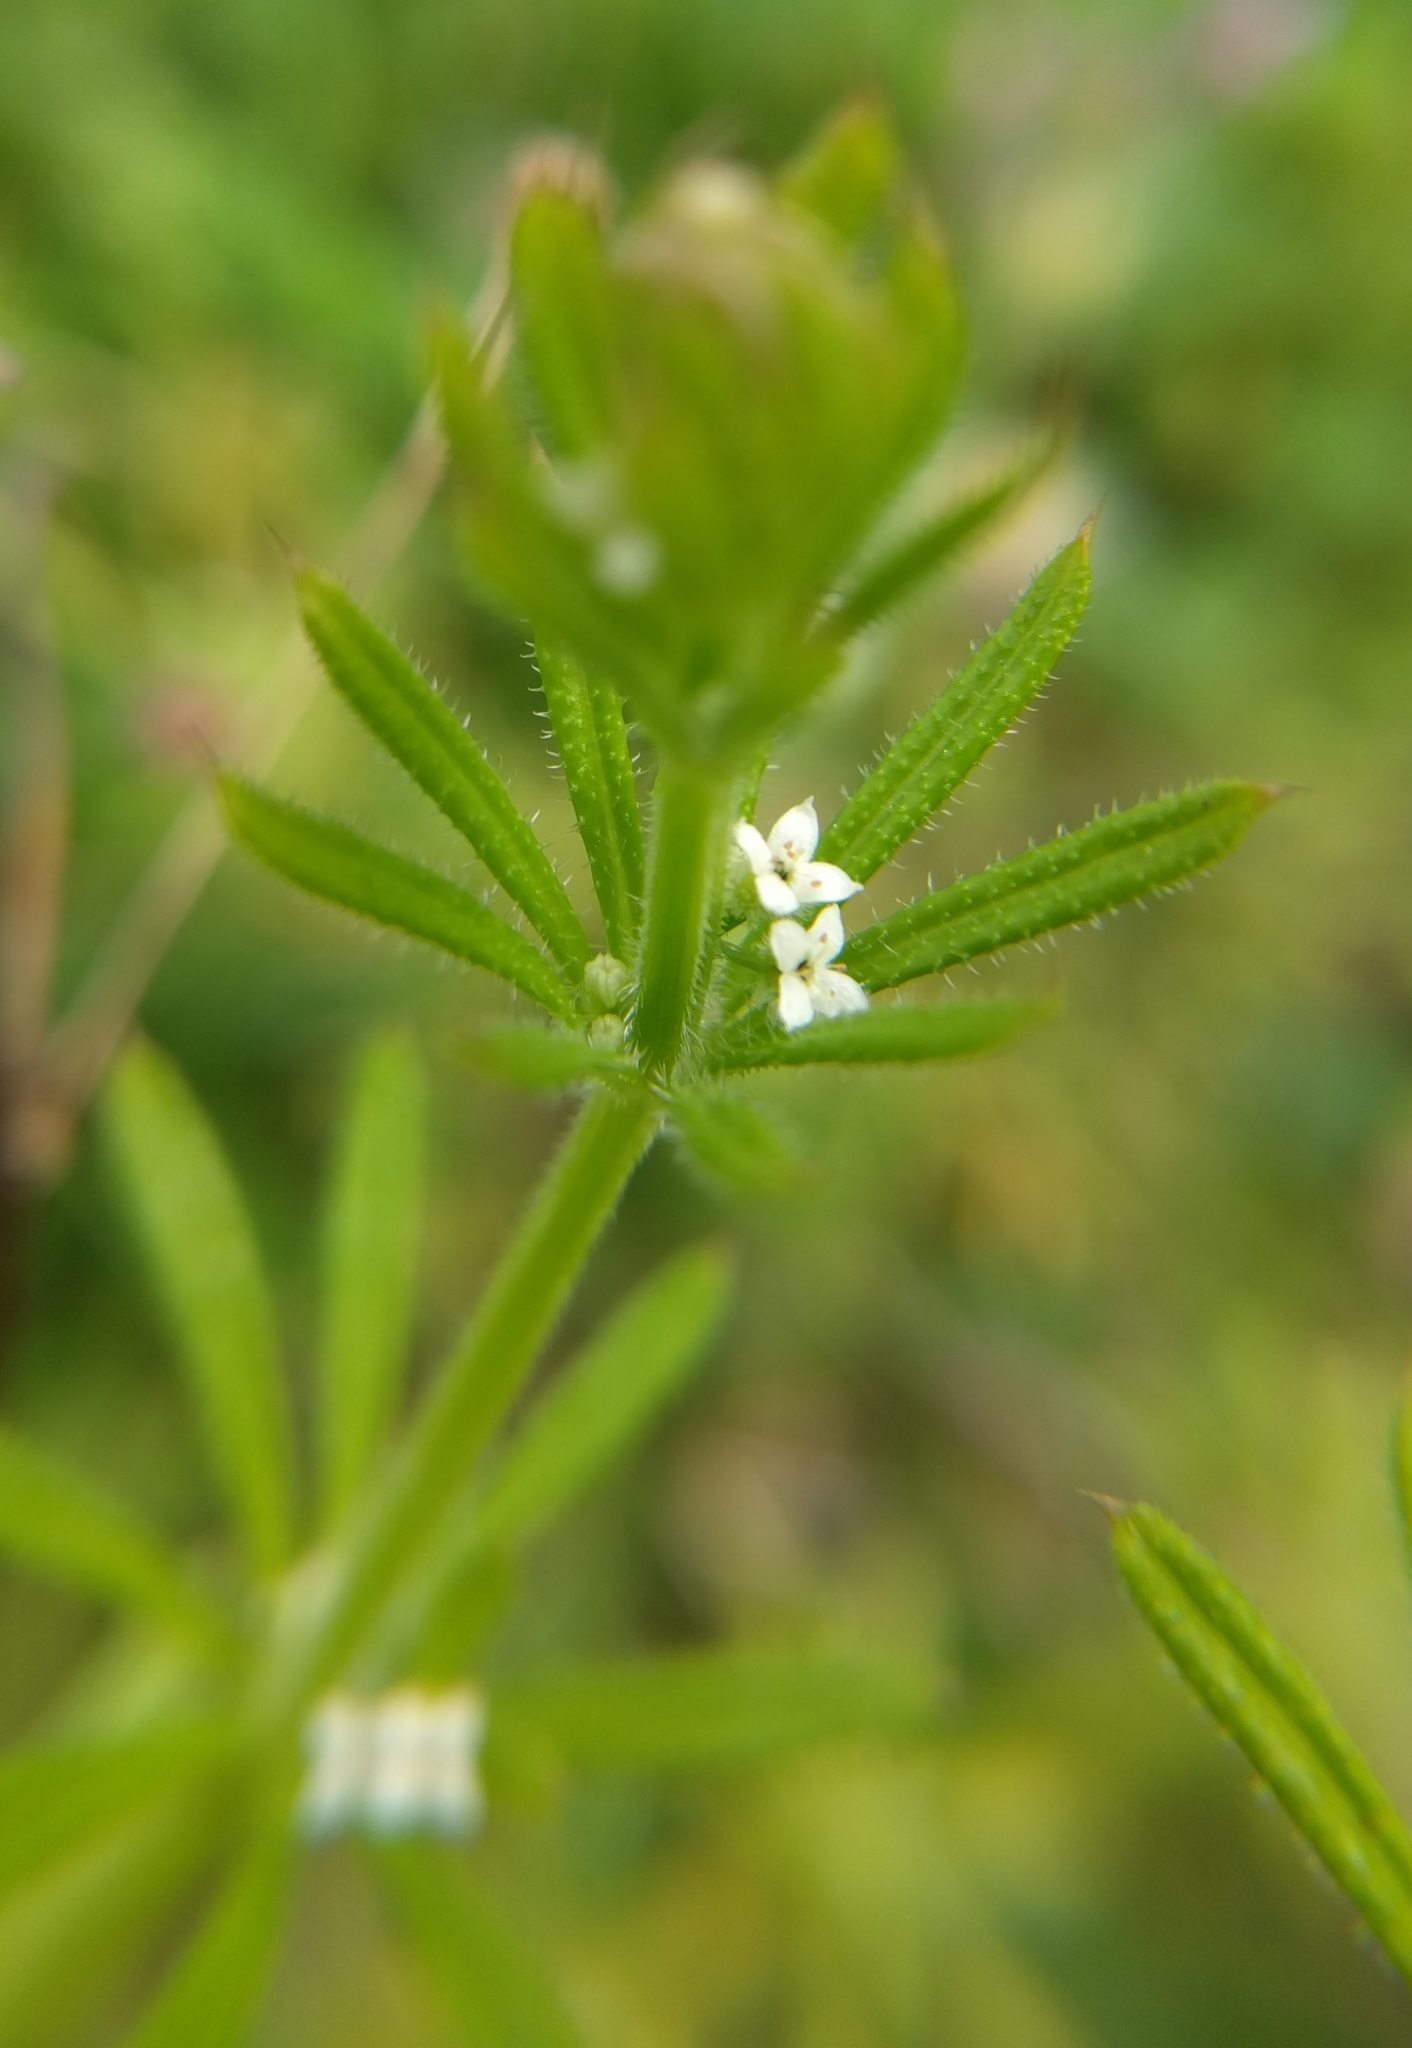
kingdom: Plantae
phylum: Tracheophyta
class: Magnoliopsida
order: Gentianales
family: Rubiaceae
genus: Galium
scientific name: Galium aparine
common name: Cleavers
